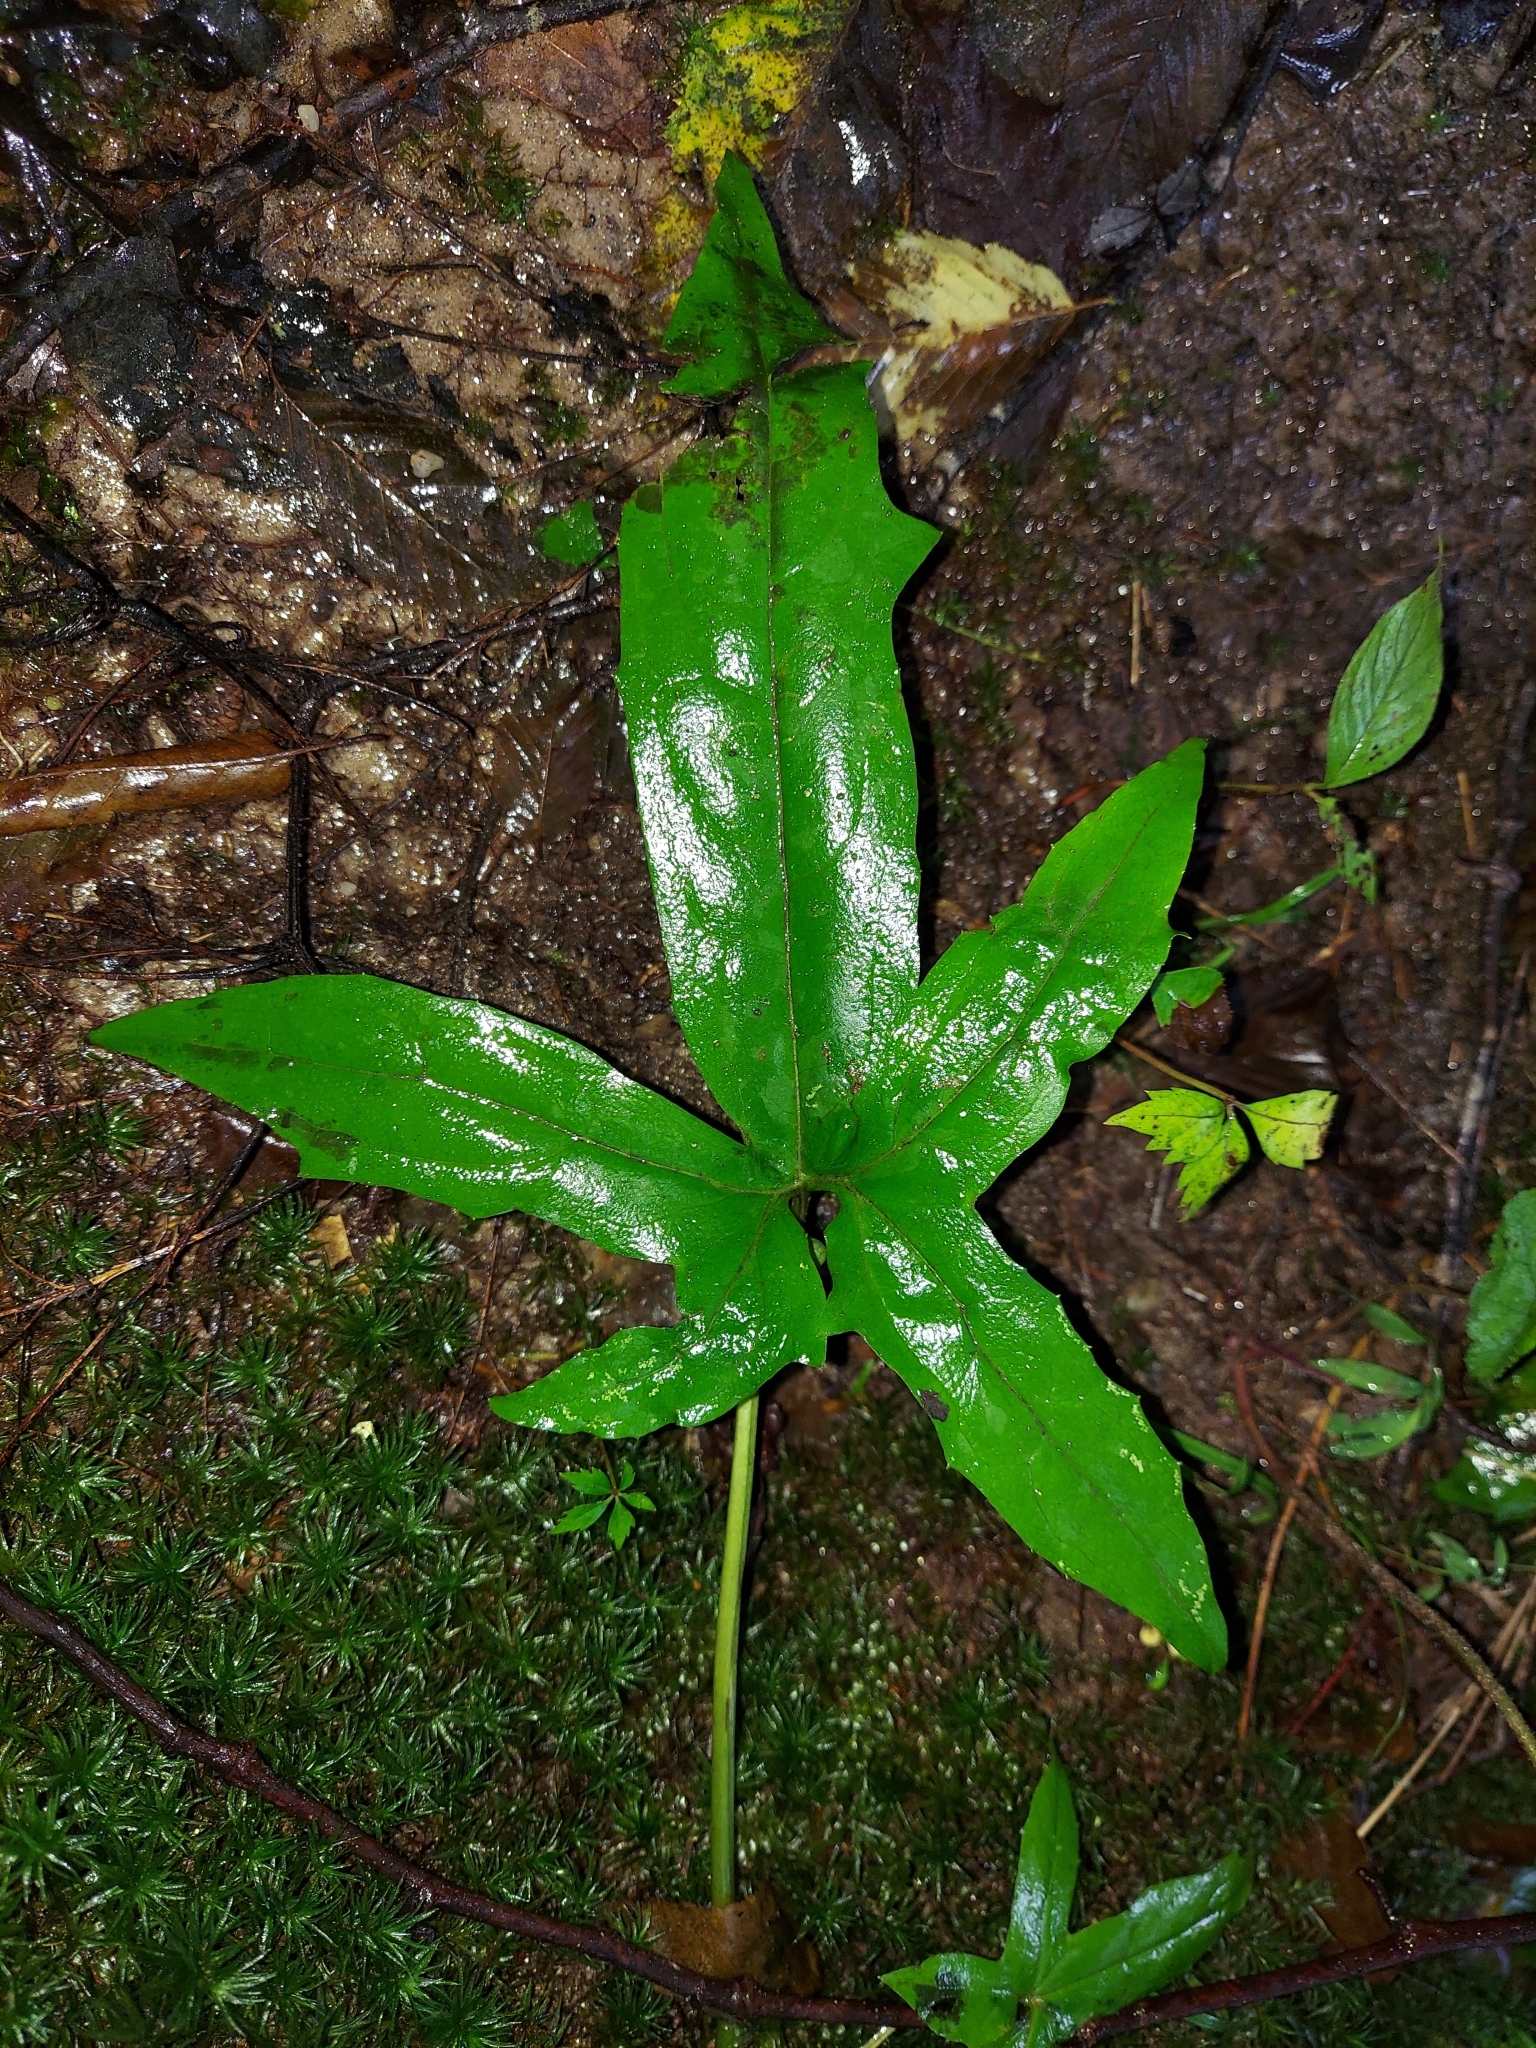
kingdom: Plantae
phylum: Tracheophyta
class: Magnoliopsida
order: Asterales
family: Asteraceae
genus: Nabalus
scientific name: Nabalus albus
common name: White rattlesnakeroot
